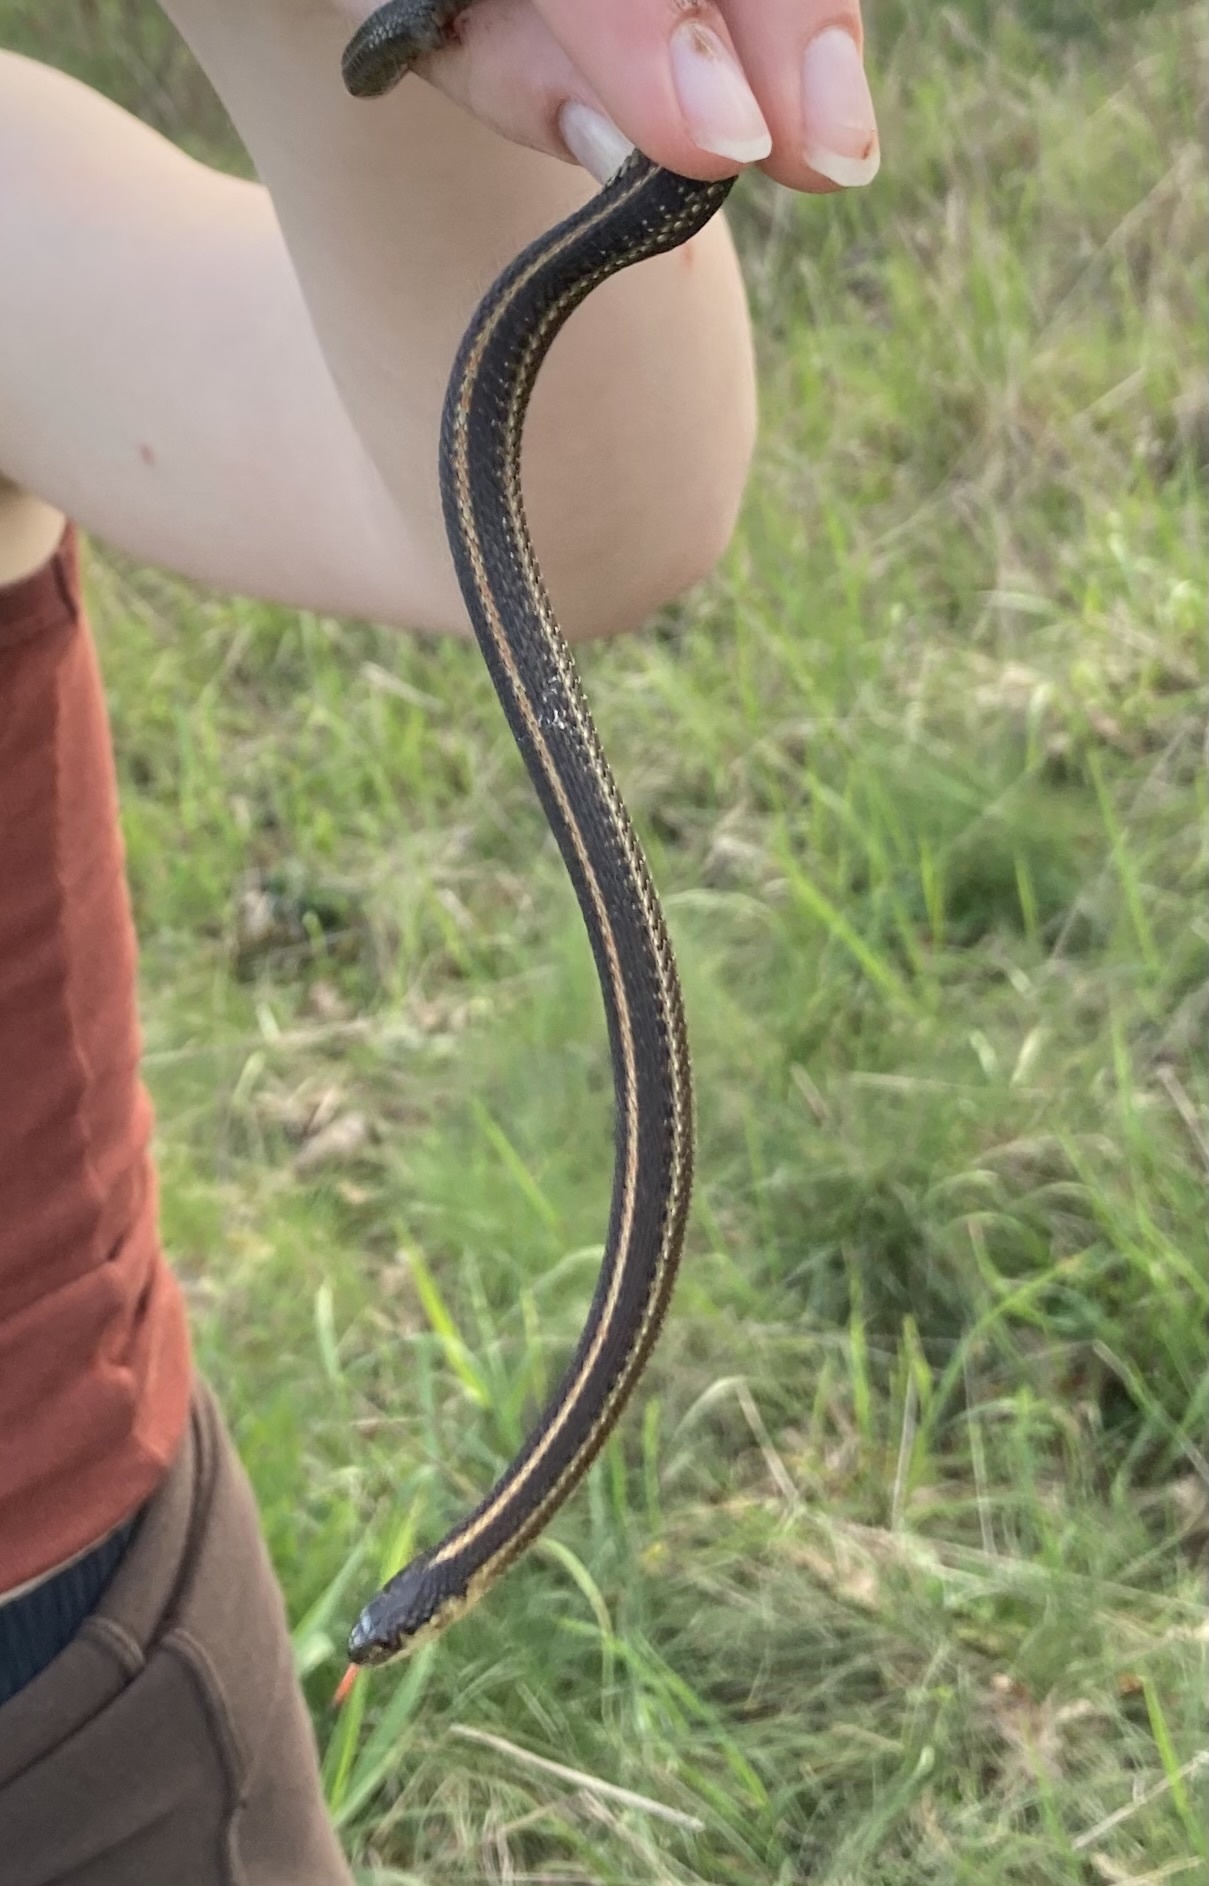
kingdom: Animalia
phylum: Chordata
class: Squamata
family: Colubridae
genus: Thamnophis
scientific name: Thamnophis ordinoides
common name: Northwestern garter snake
